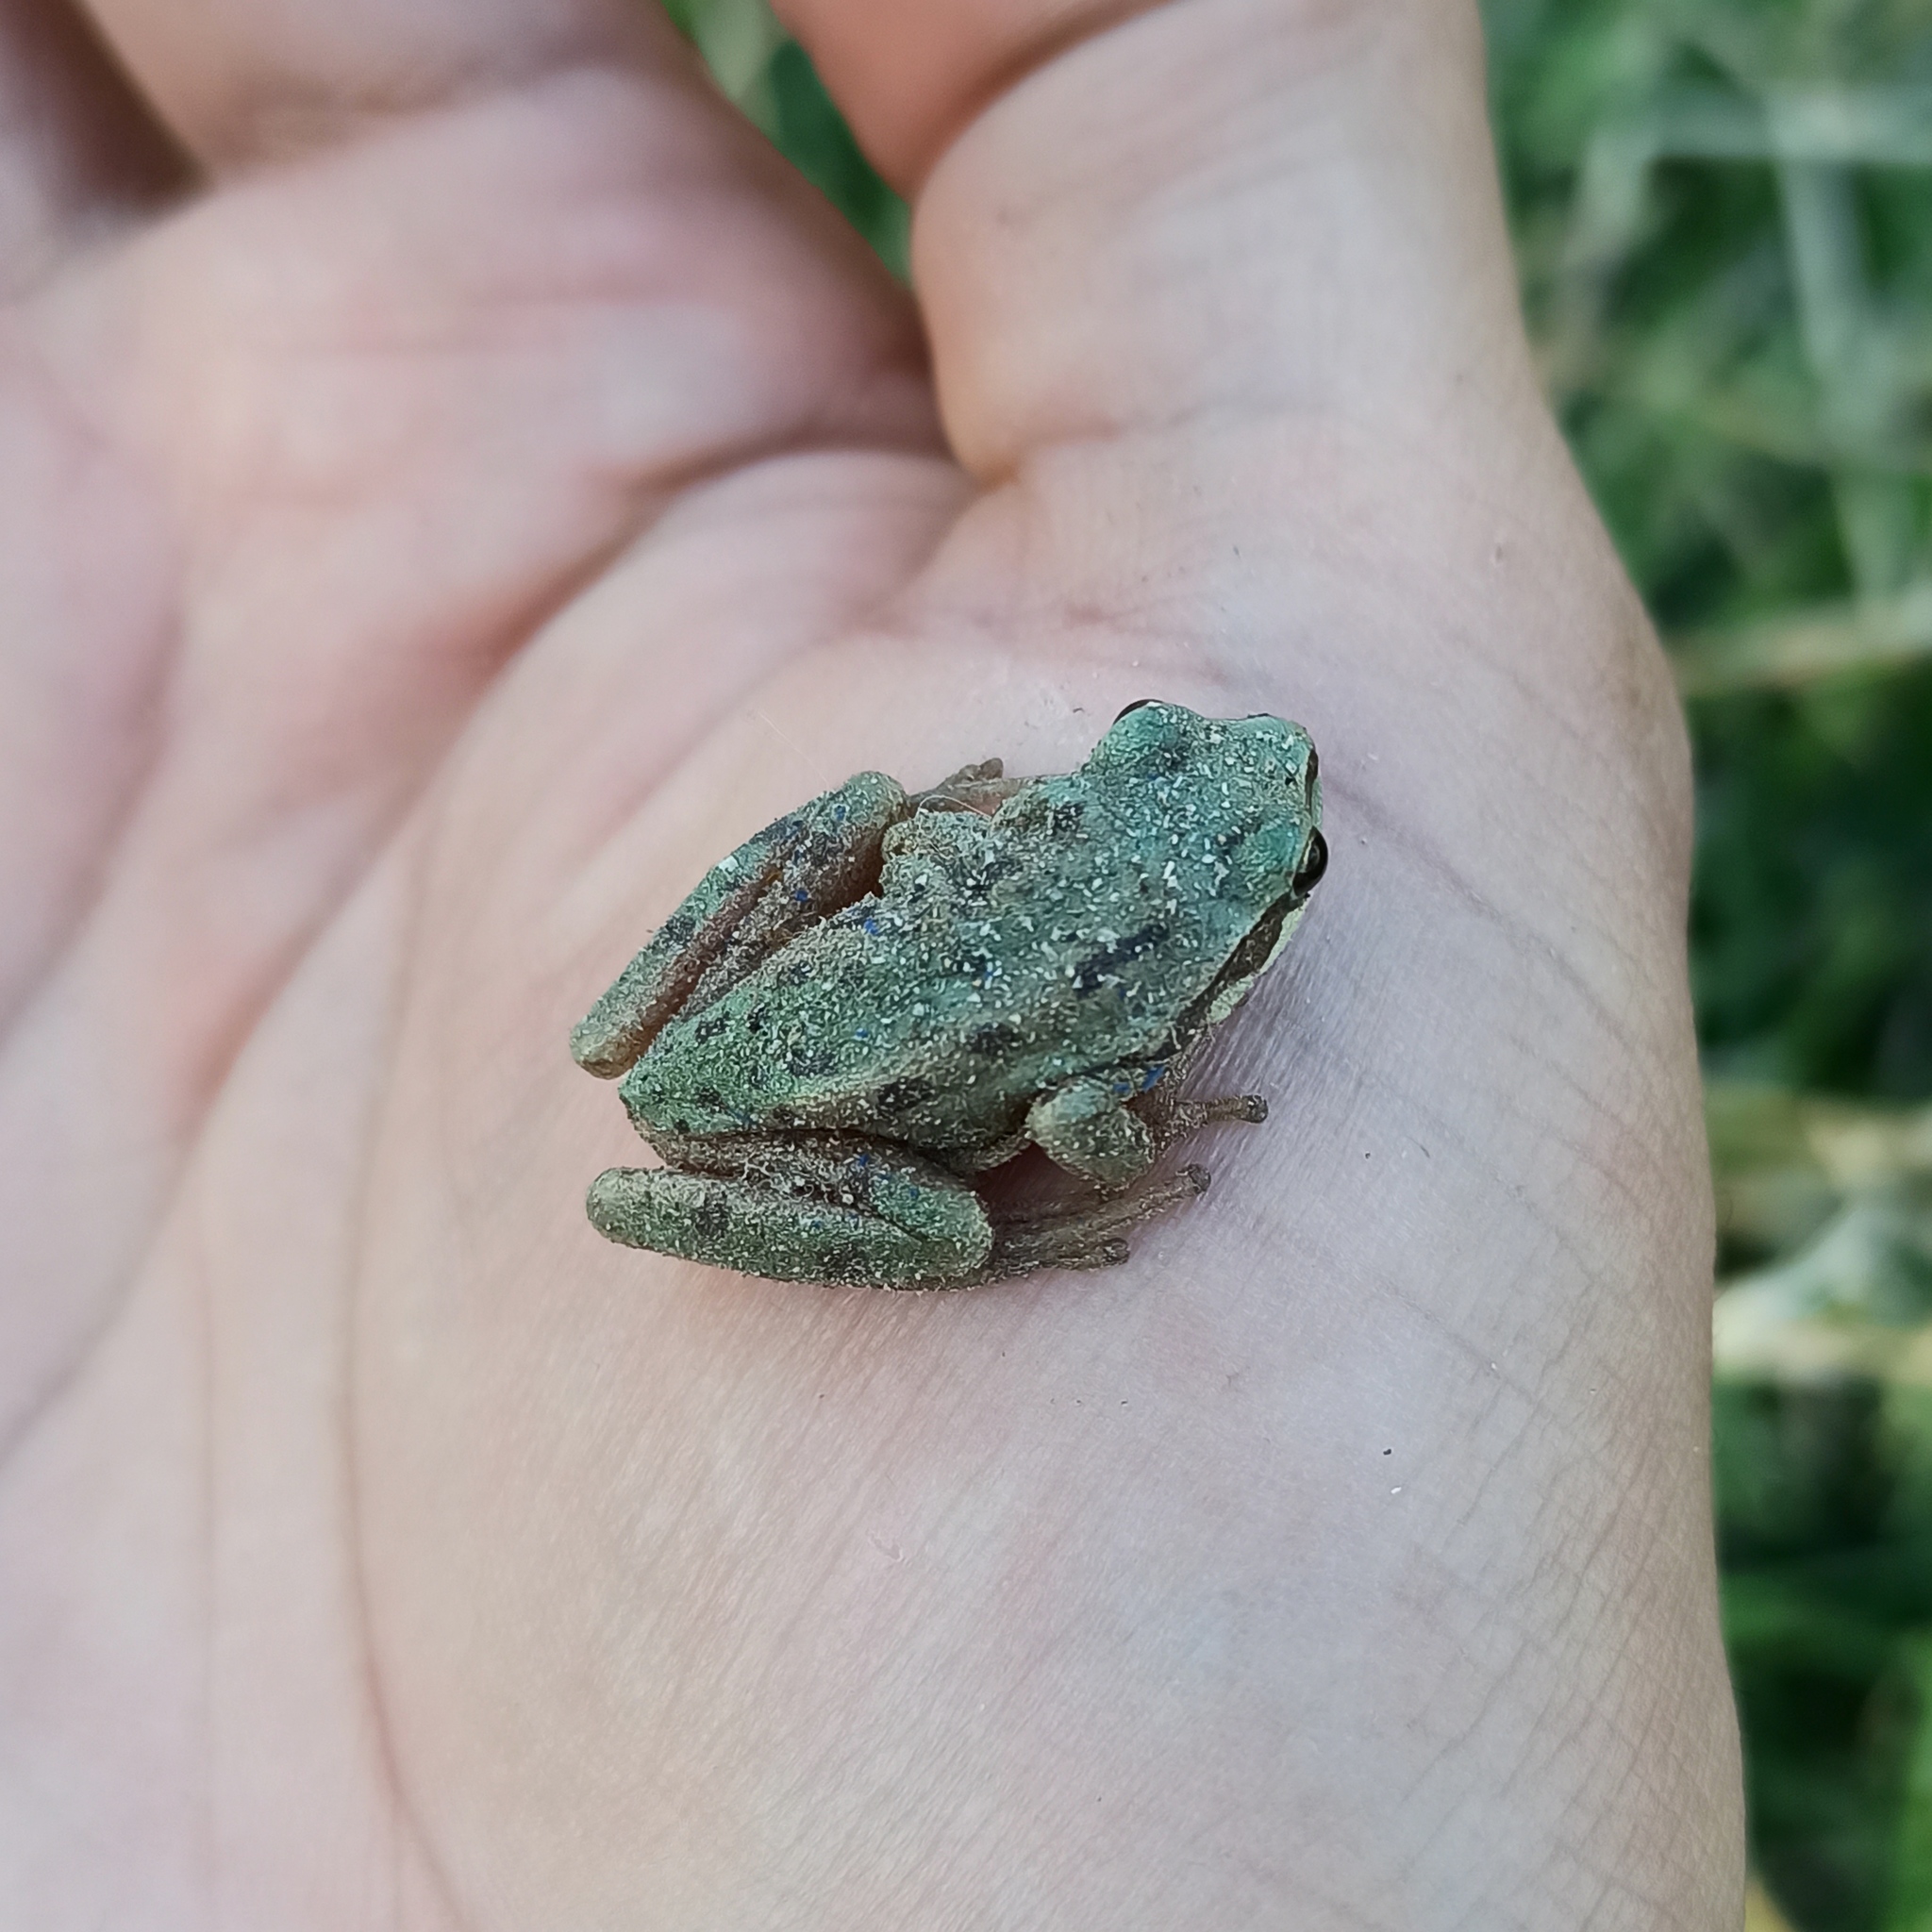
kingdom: Animalia
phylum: Chordata
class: Amphibia
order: Anura
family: Hylidae
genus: Dryophytes
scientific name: Dryophytes eximius
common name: Mountain treefrog
